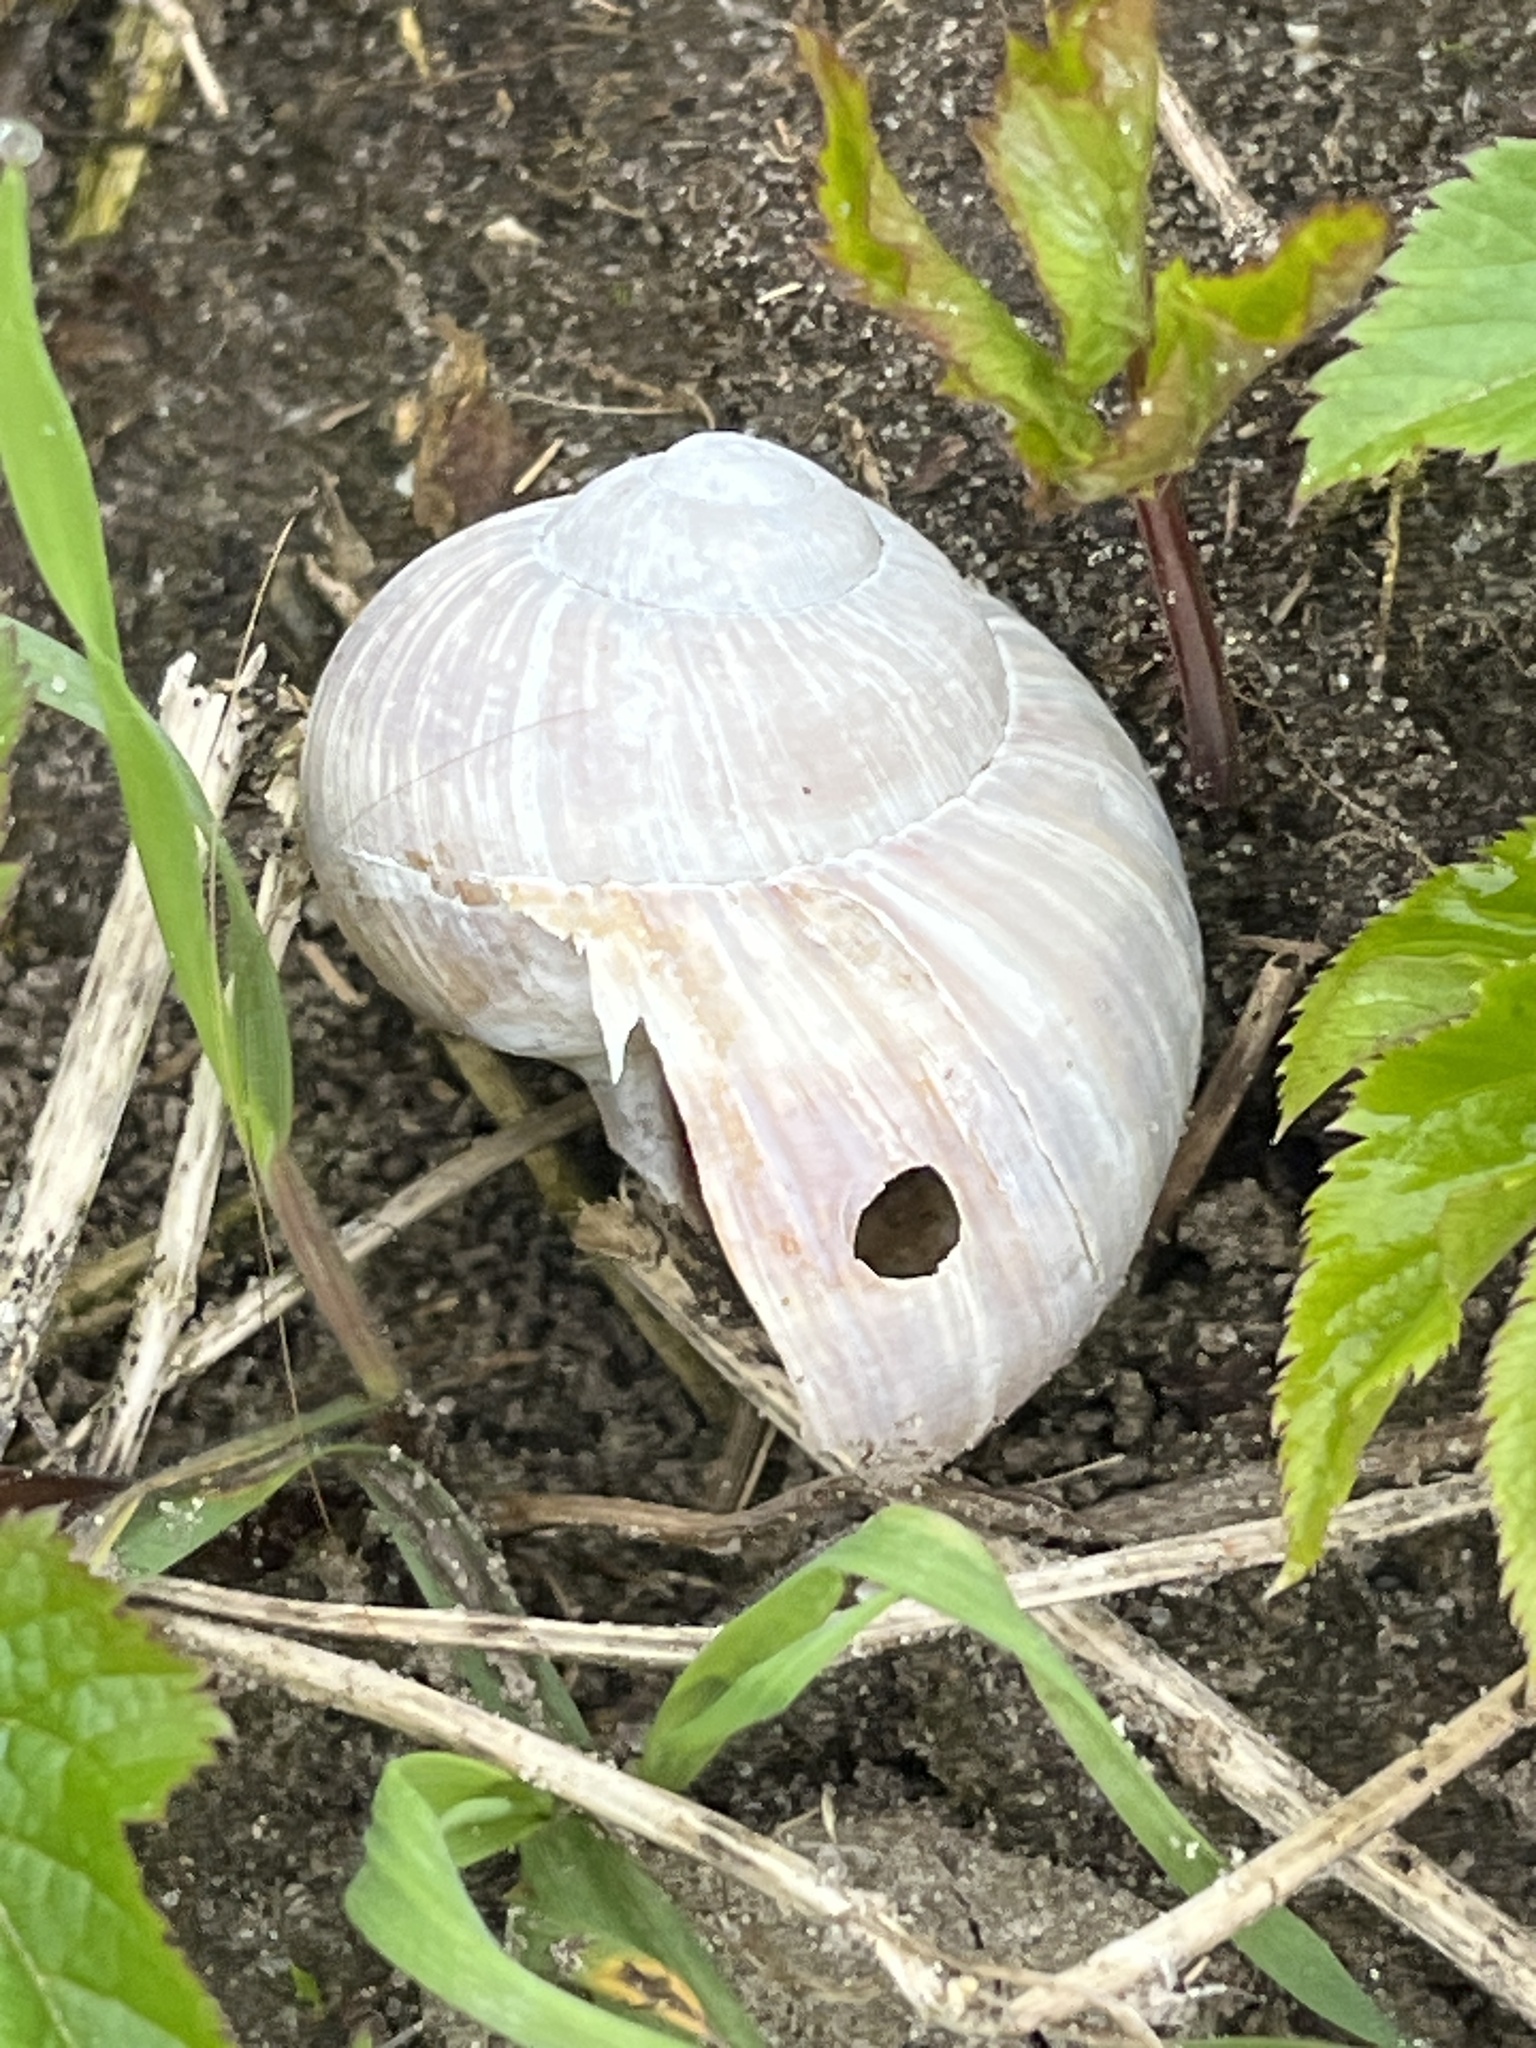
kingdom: Animalia
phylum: Mollusca
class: Gastropoda
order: Stylommatophora
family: Helicidae
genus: Helix
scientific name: Helix pomatia
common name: Roman snail
